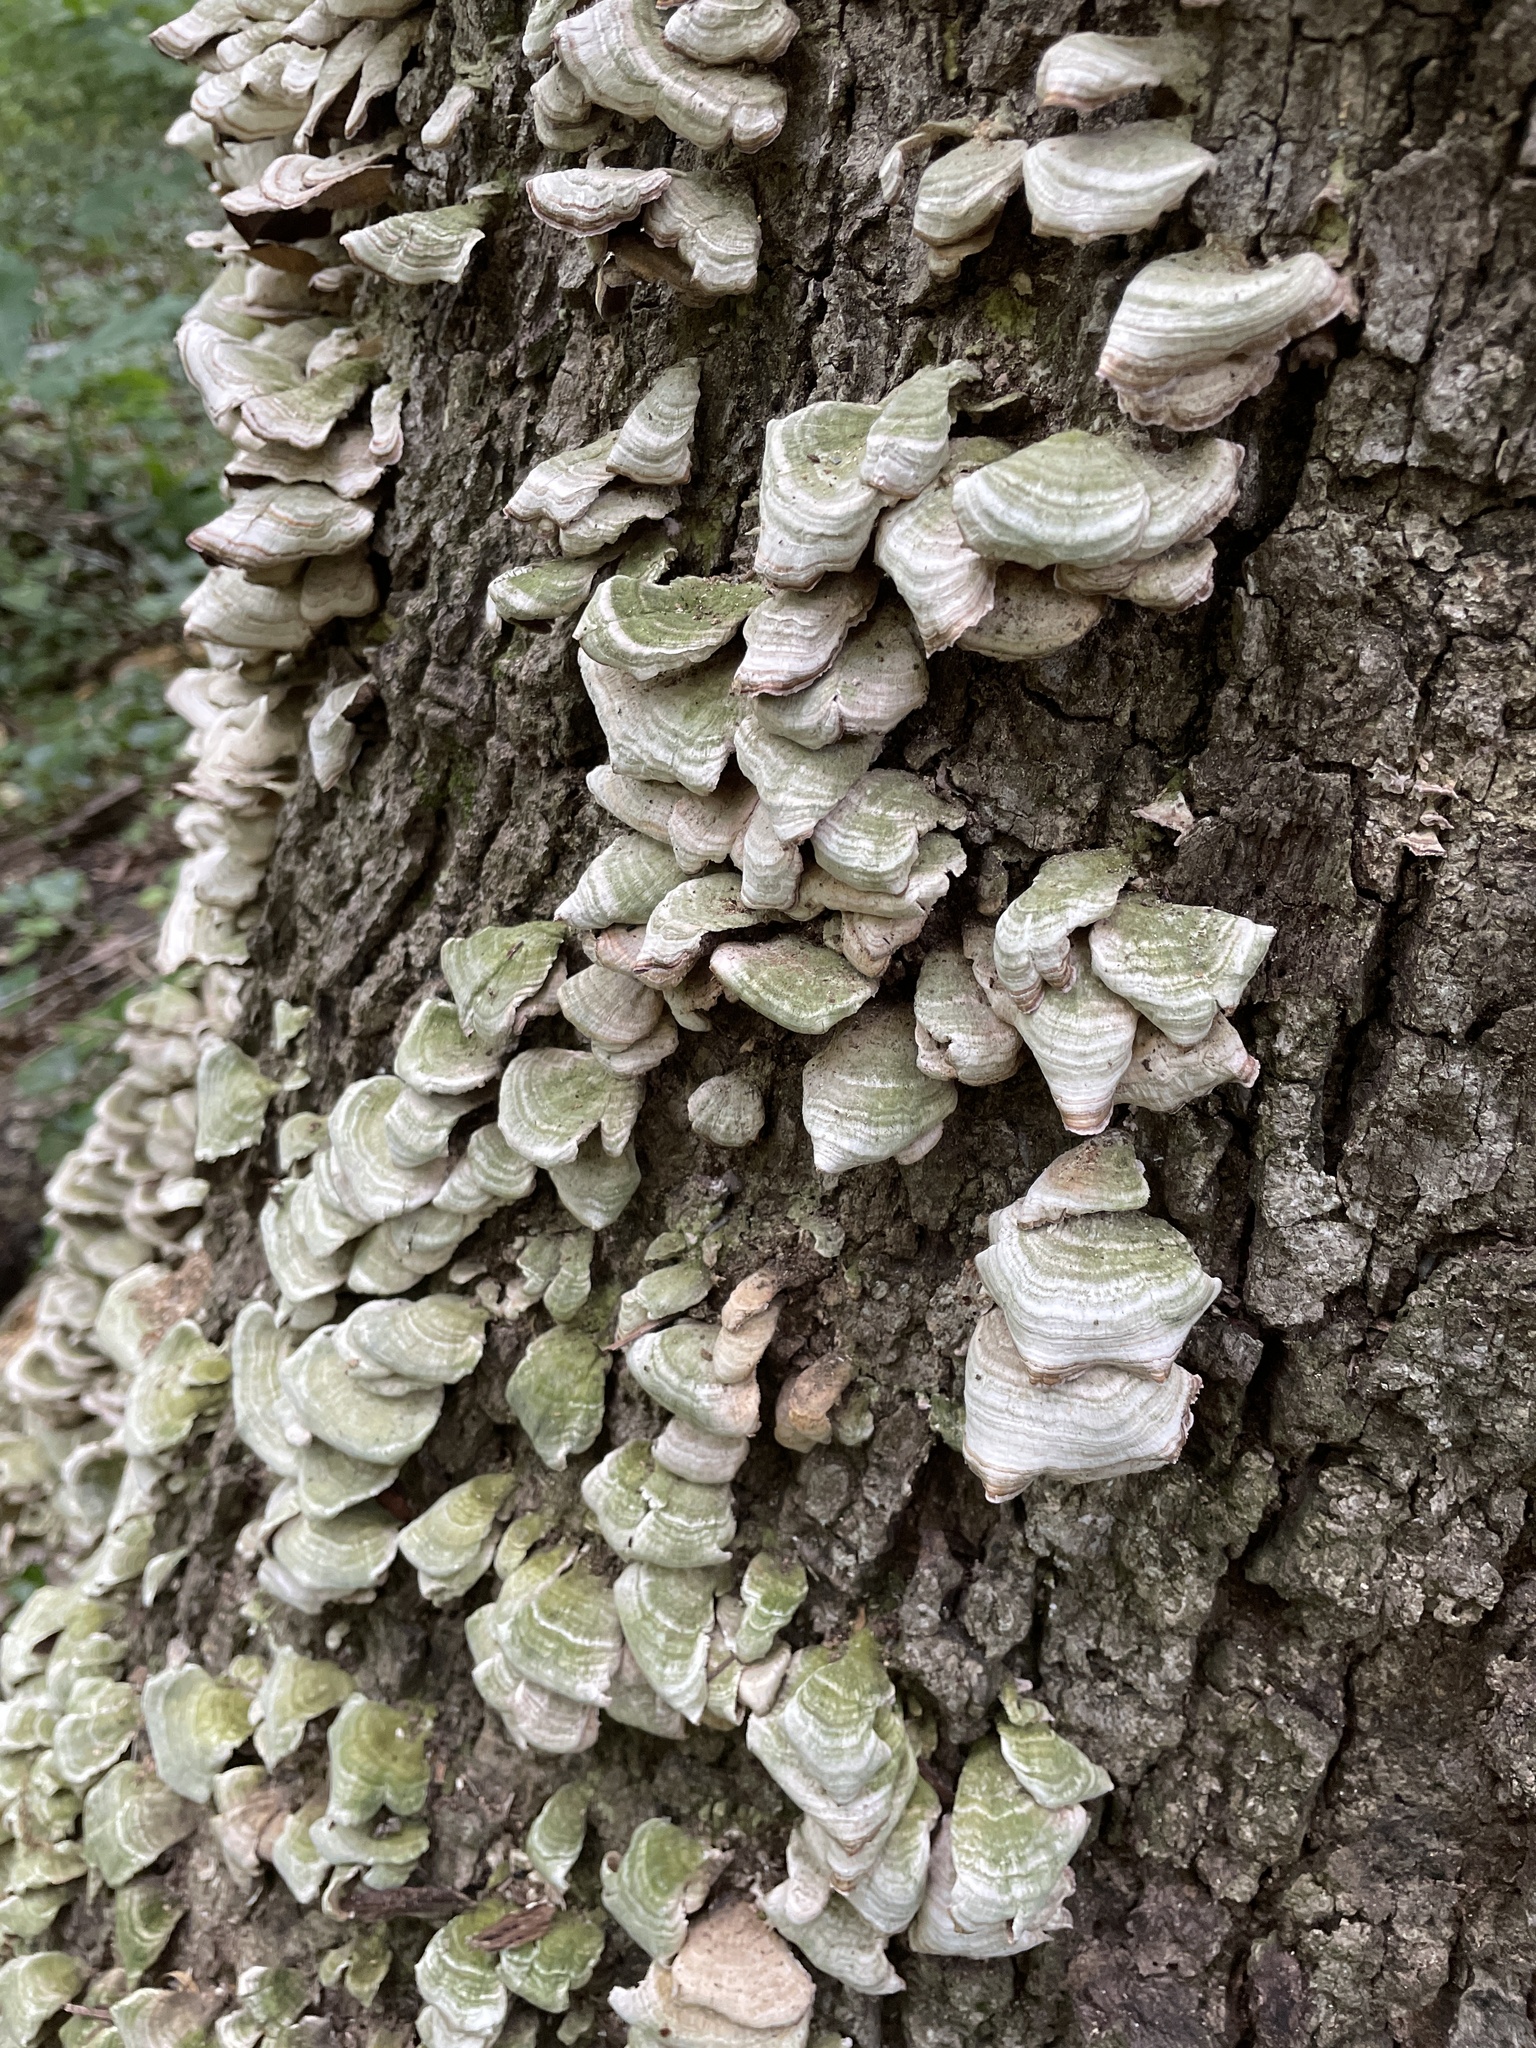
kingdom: Fungi
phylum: Basidiomycota
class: Agaricomycetes
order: Hymenochaetales
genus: Trichaptum
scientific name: Trichaptum biforme
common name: Violet-toothed polypore
